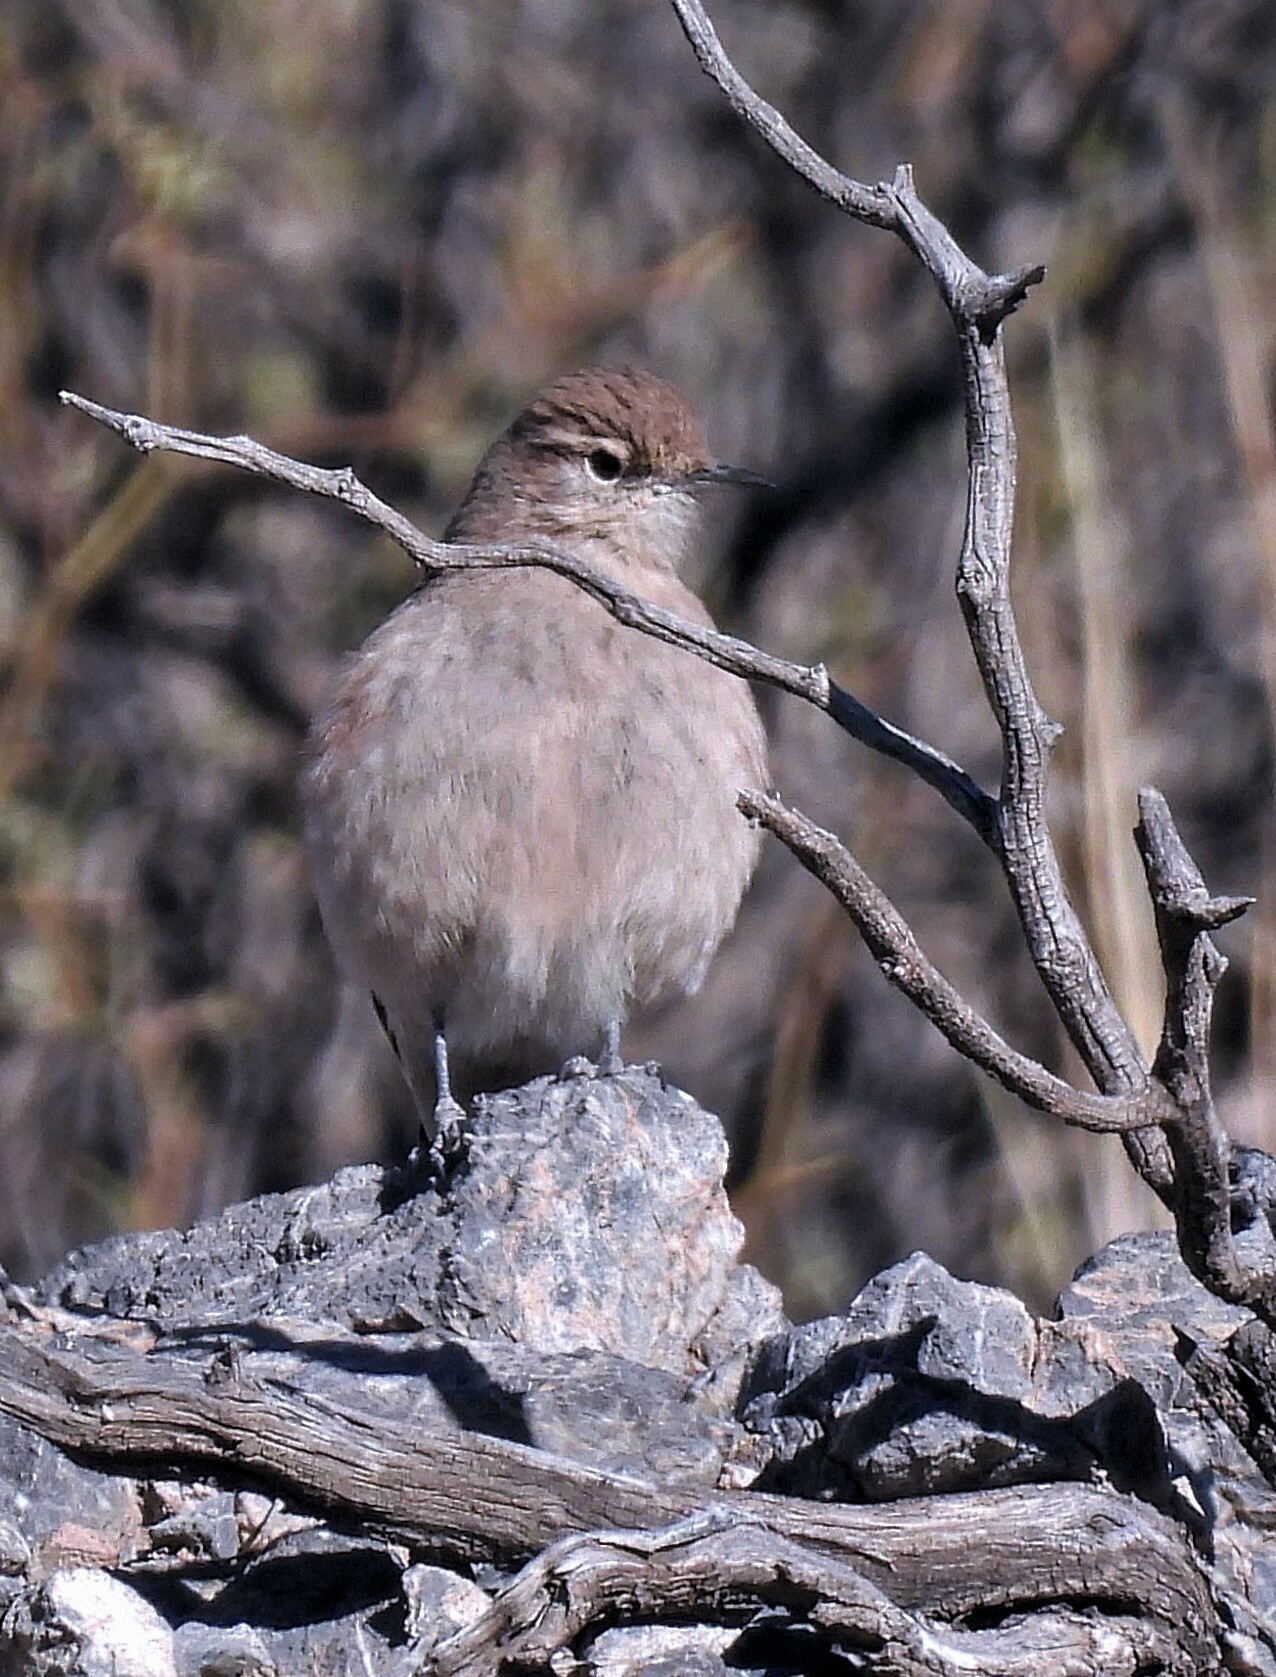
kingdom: Animalia
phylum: Chordata
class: Aves
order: Passeriformes
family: Furnariidae
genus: Geositta
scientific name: Geositta rufipennis
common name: Rufous-banded miner
